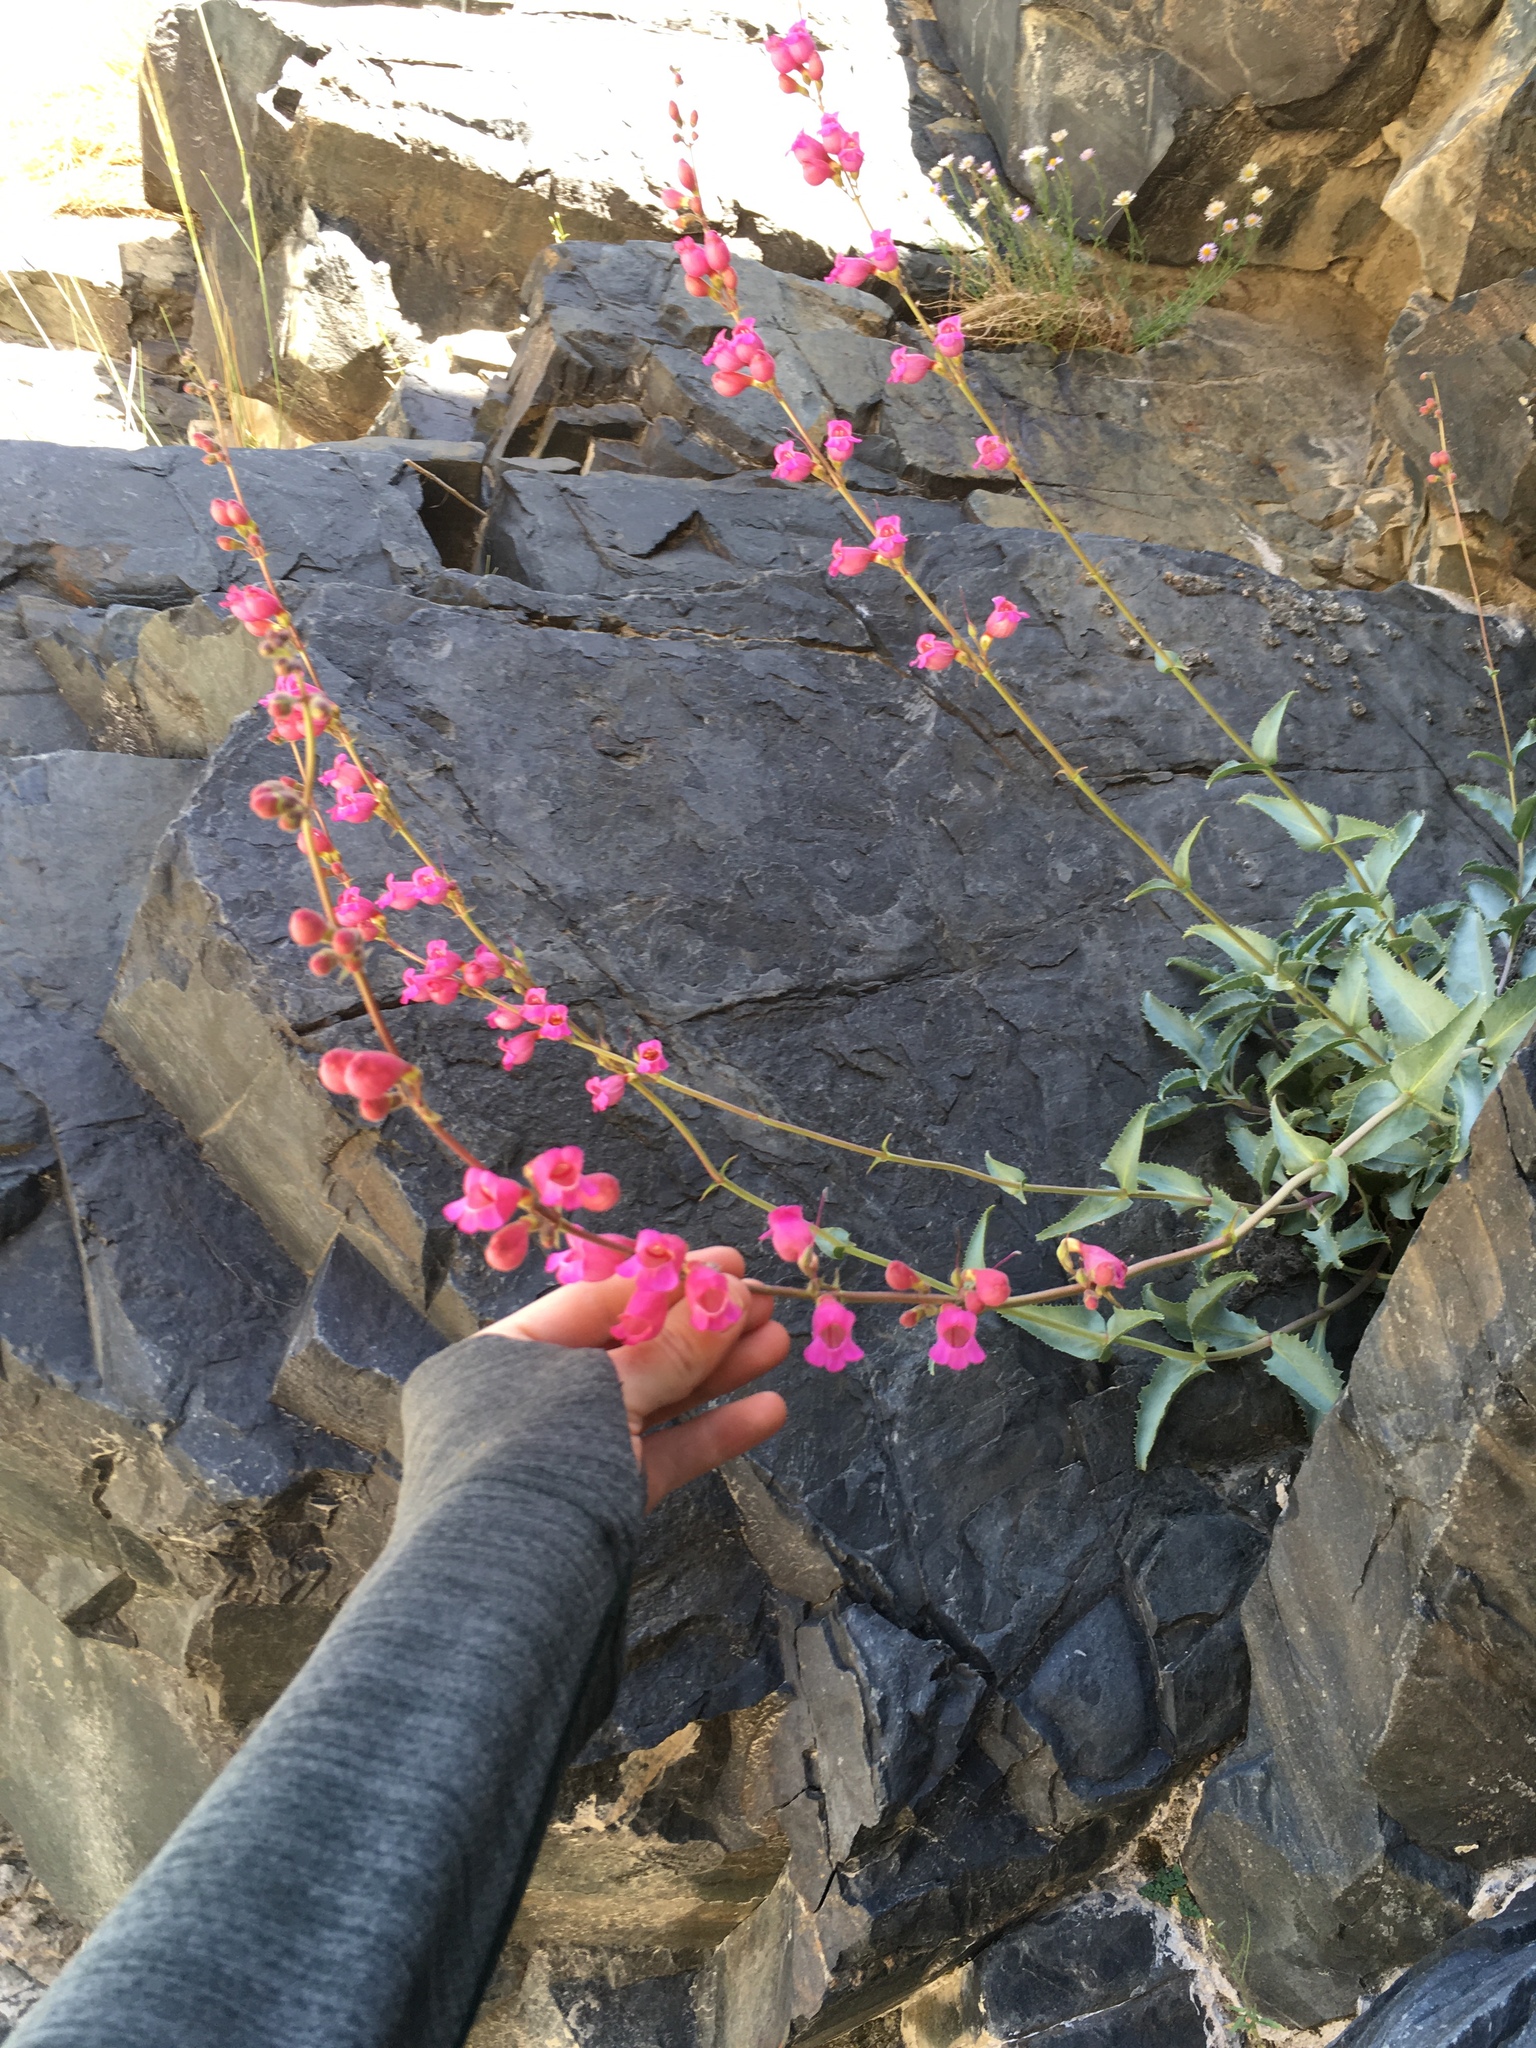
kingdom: Plantae
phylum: Tracheophyta
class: Magnoliopsida
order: Lamiales
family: Plantaginaceae
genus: Penstemon
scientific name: Penstemon floridus
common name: Panamint penstemon
